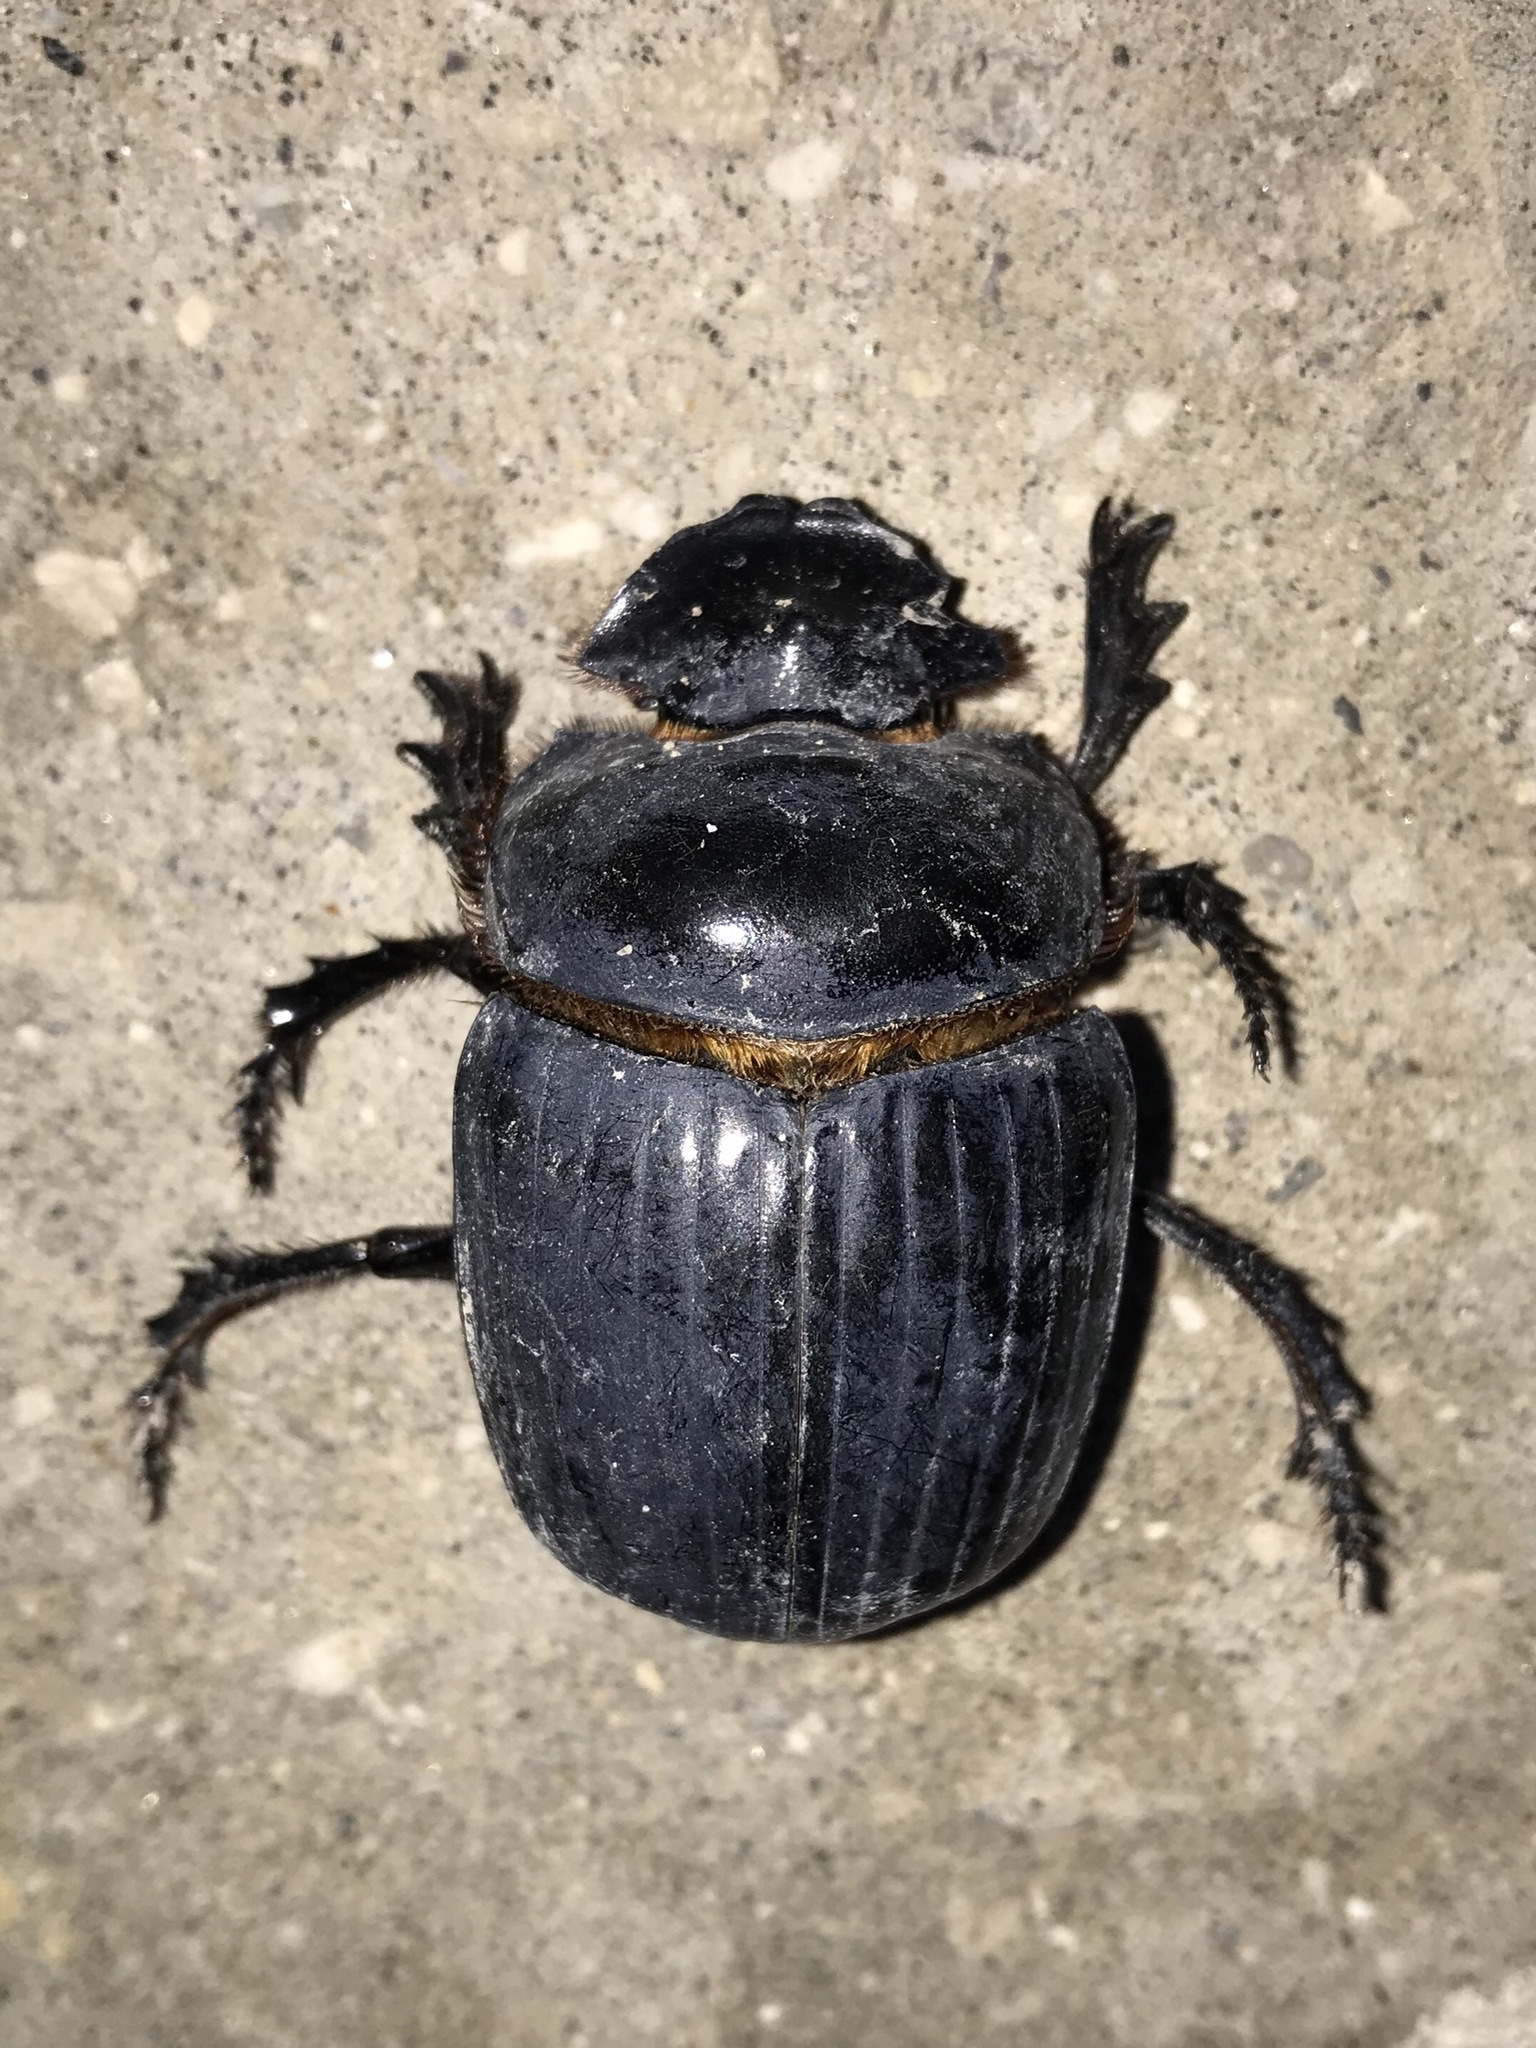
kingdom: Animalia
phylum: Arthropoda
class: Insecta
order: Coleoptera
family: Scarabaeidae
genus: Synapsis
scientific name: Synapsis tmolus
